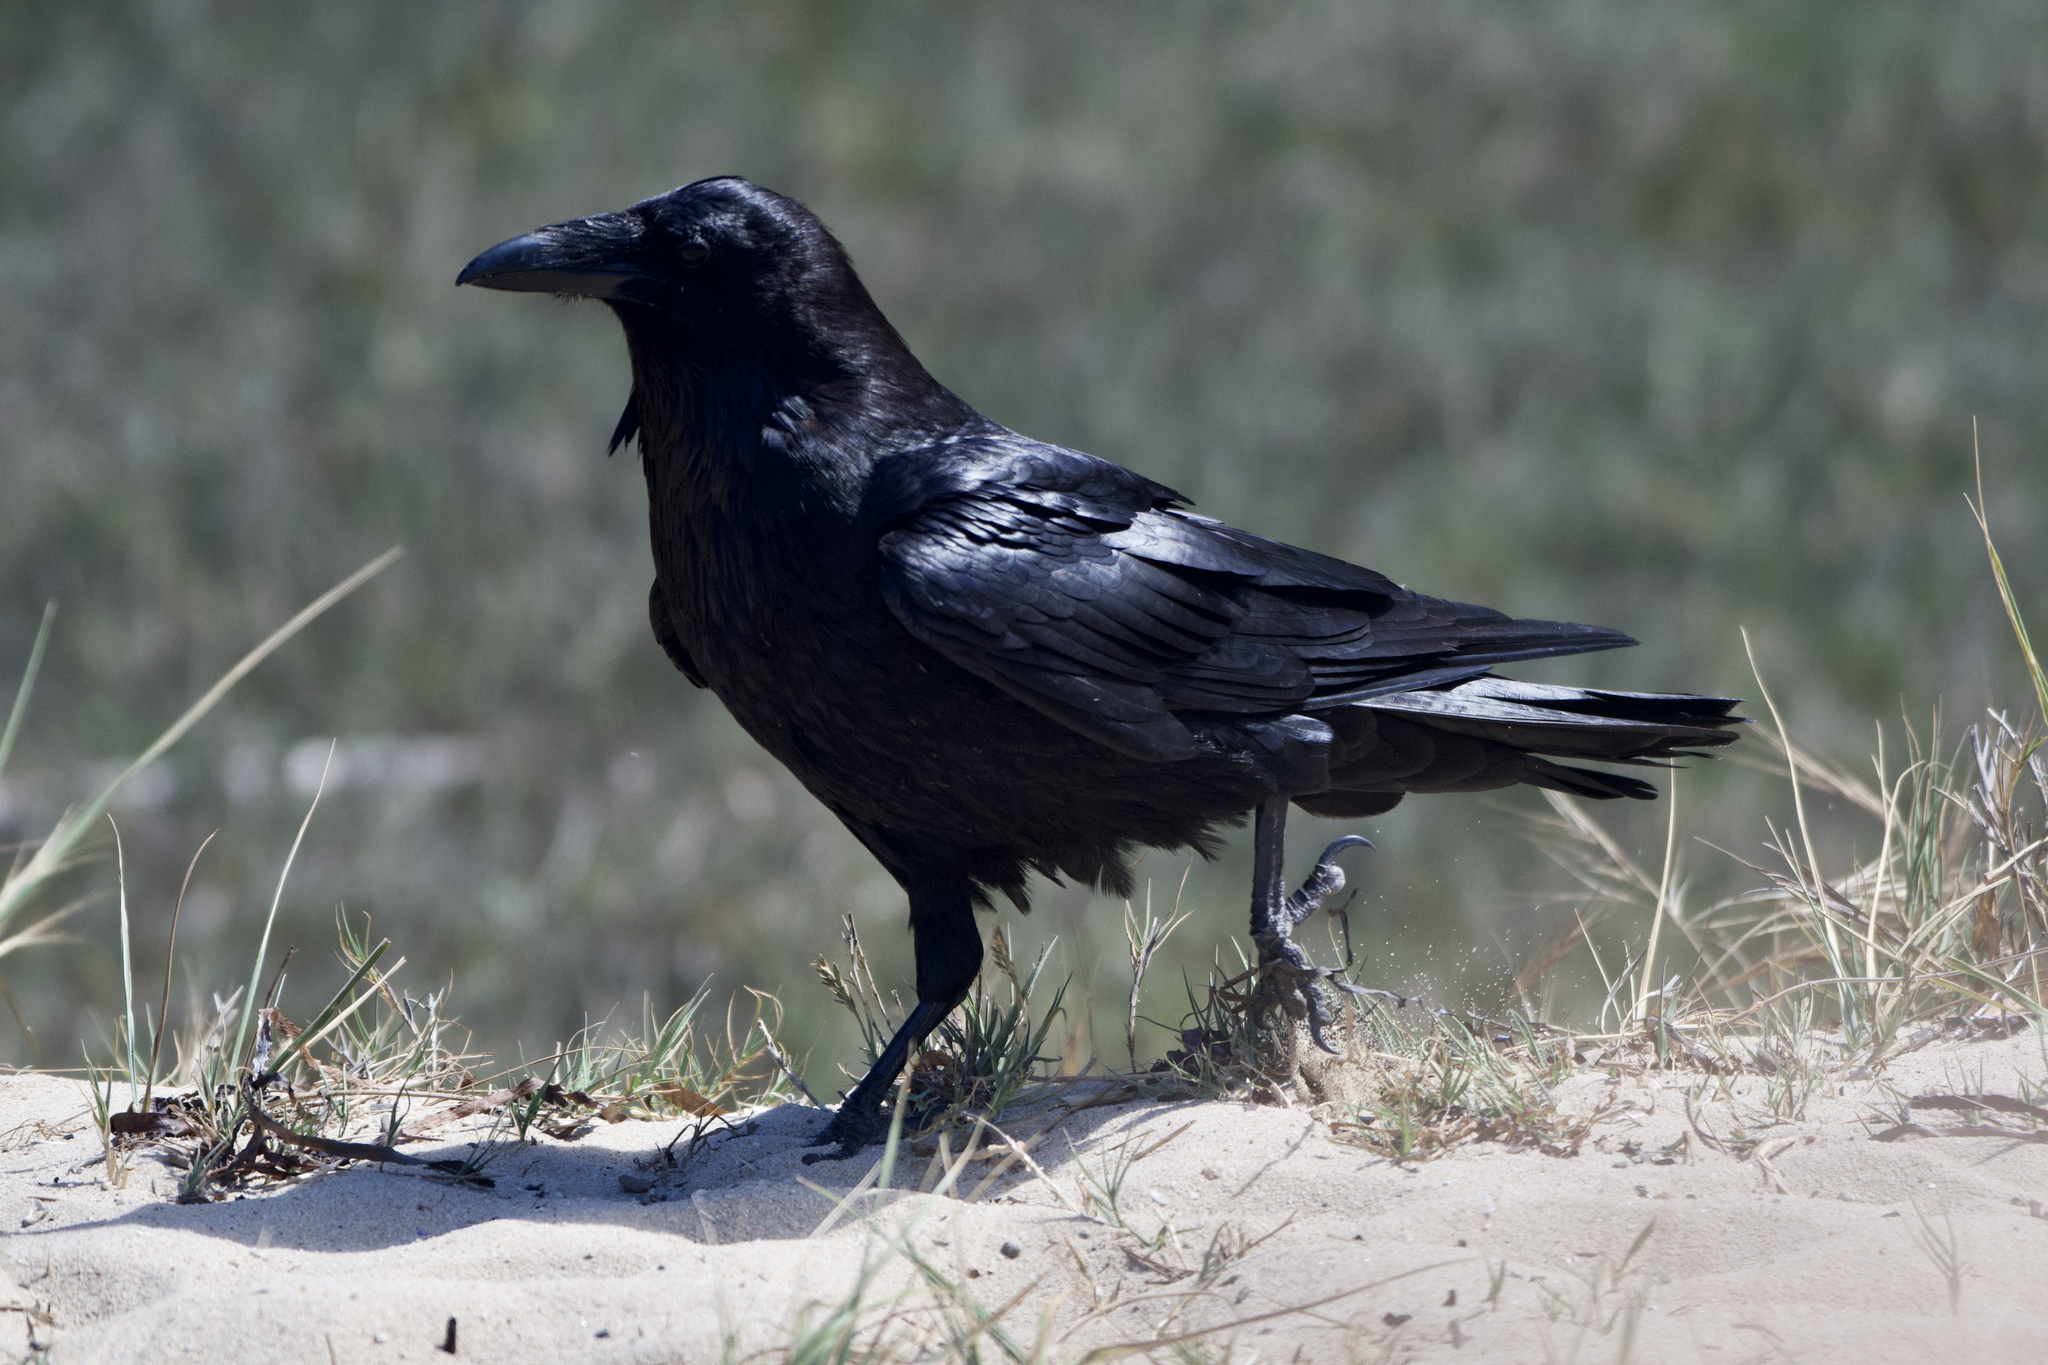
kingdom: Animalia
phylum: Chordata
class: Aves
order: Passeriformes
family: Corvidae
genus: Corvus
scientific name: Corvus corax
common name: Common raven
